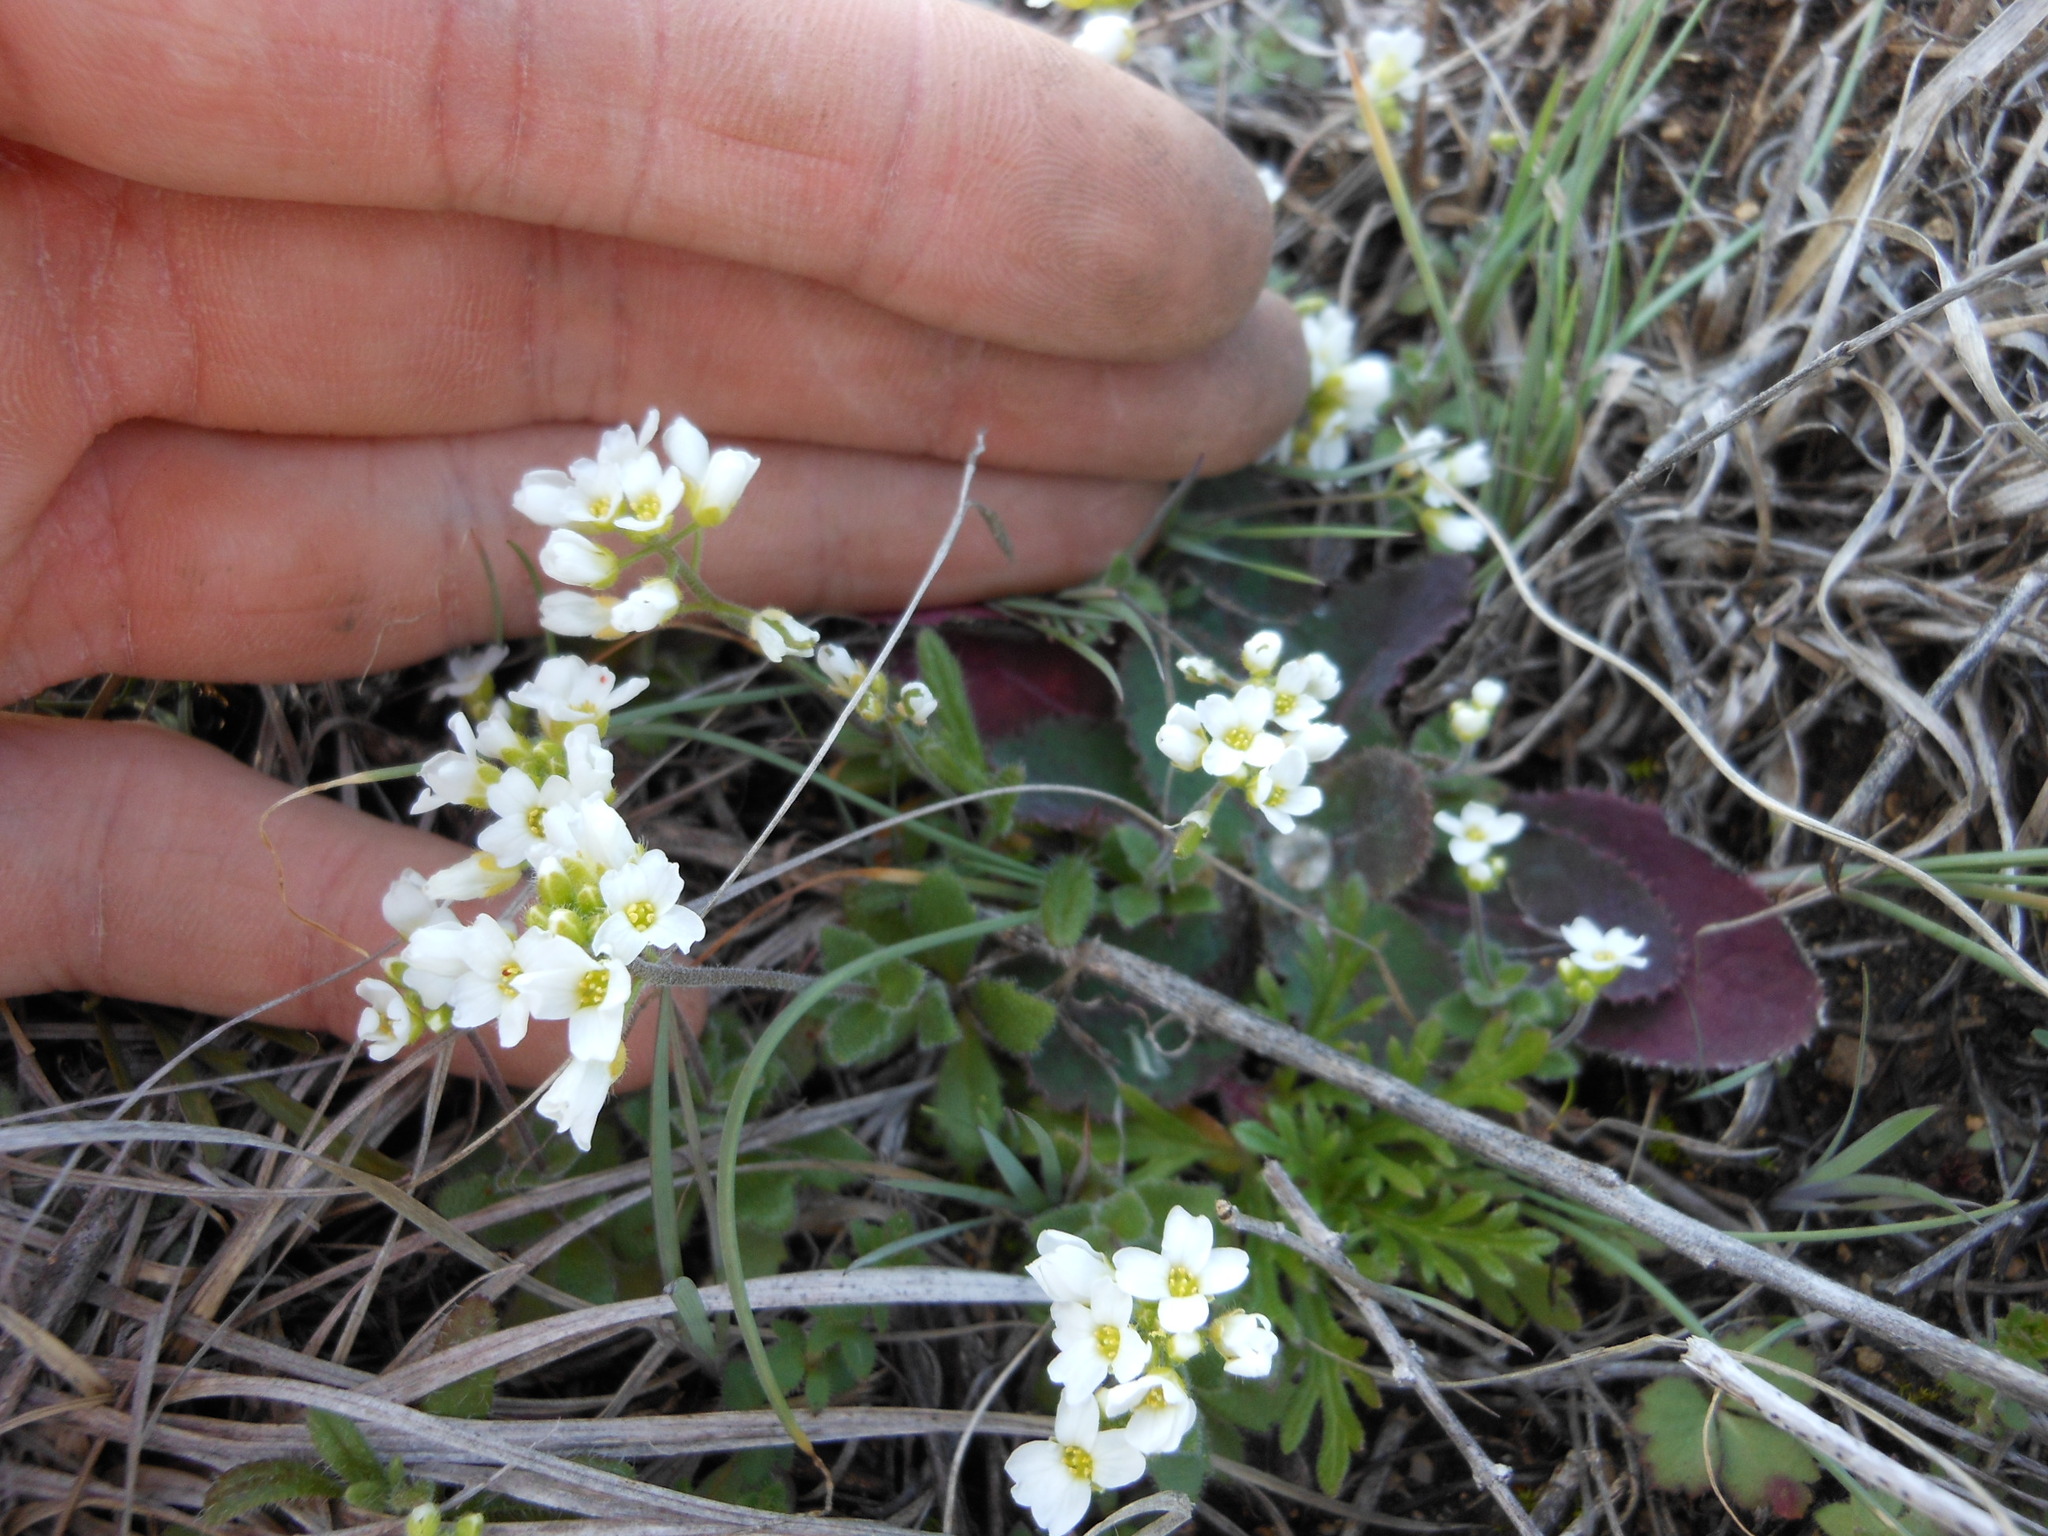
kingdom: Plantae
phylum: Tracheophyta
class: Magnoliopsida
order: Brassicales
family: Brassicaceae
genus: Tomostima
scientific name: Tomostima cuneifolia
